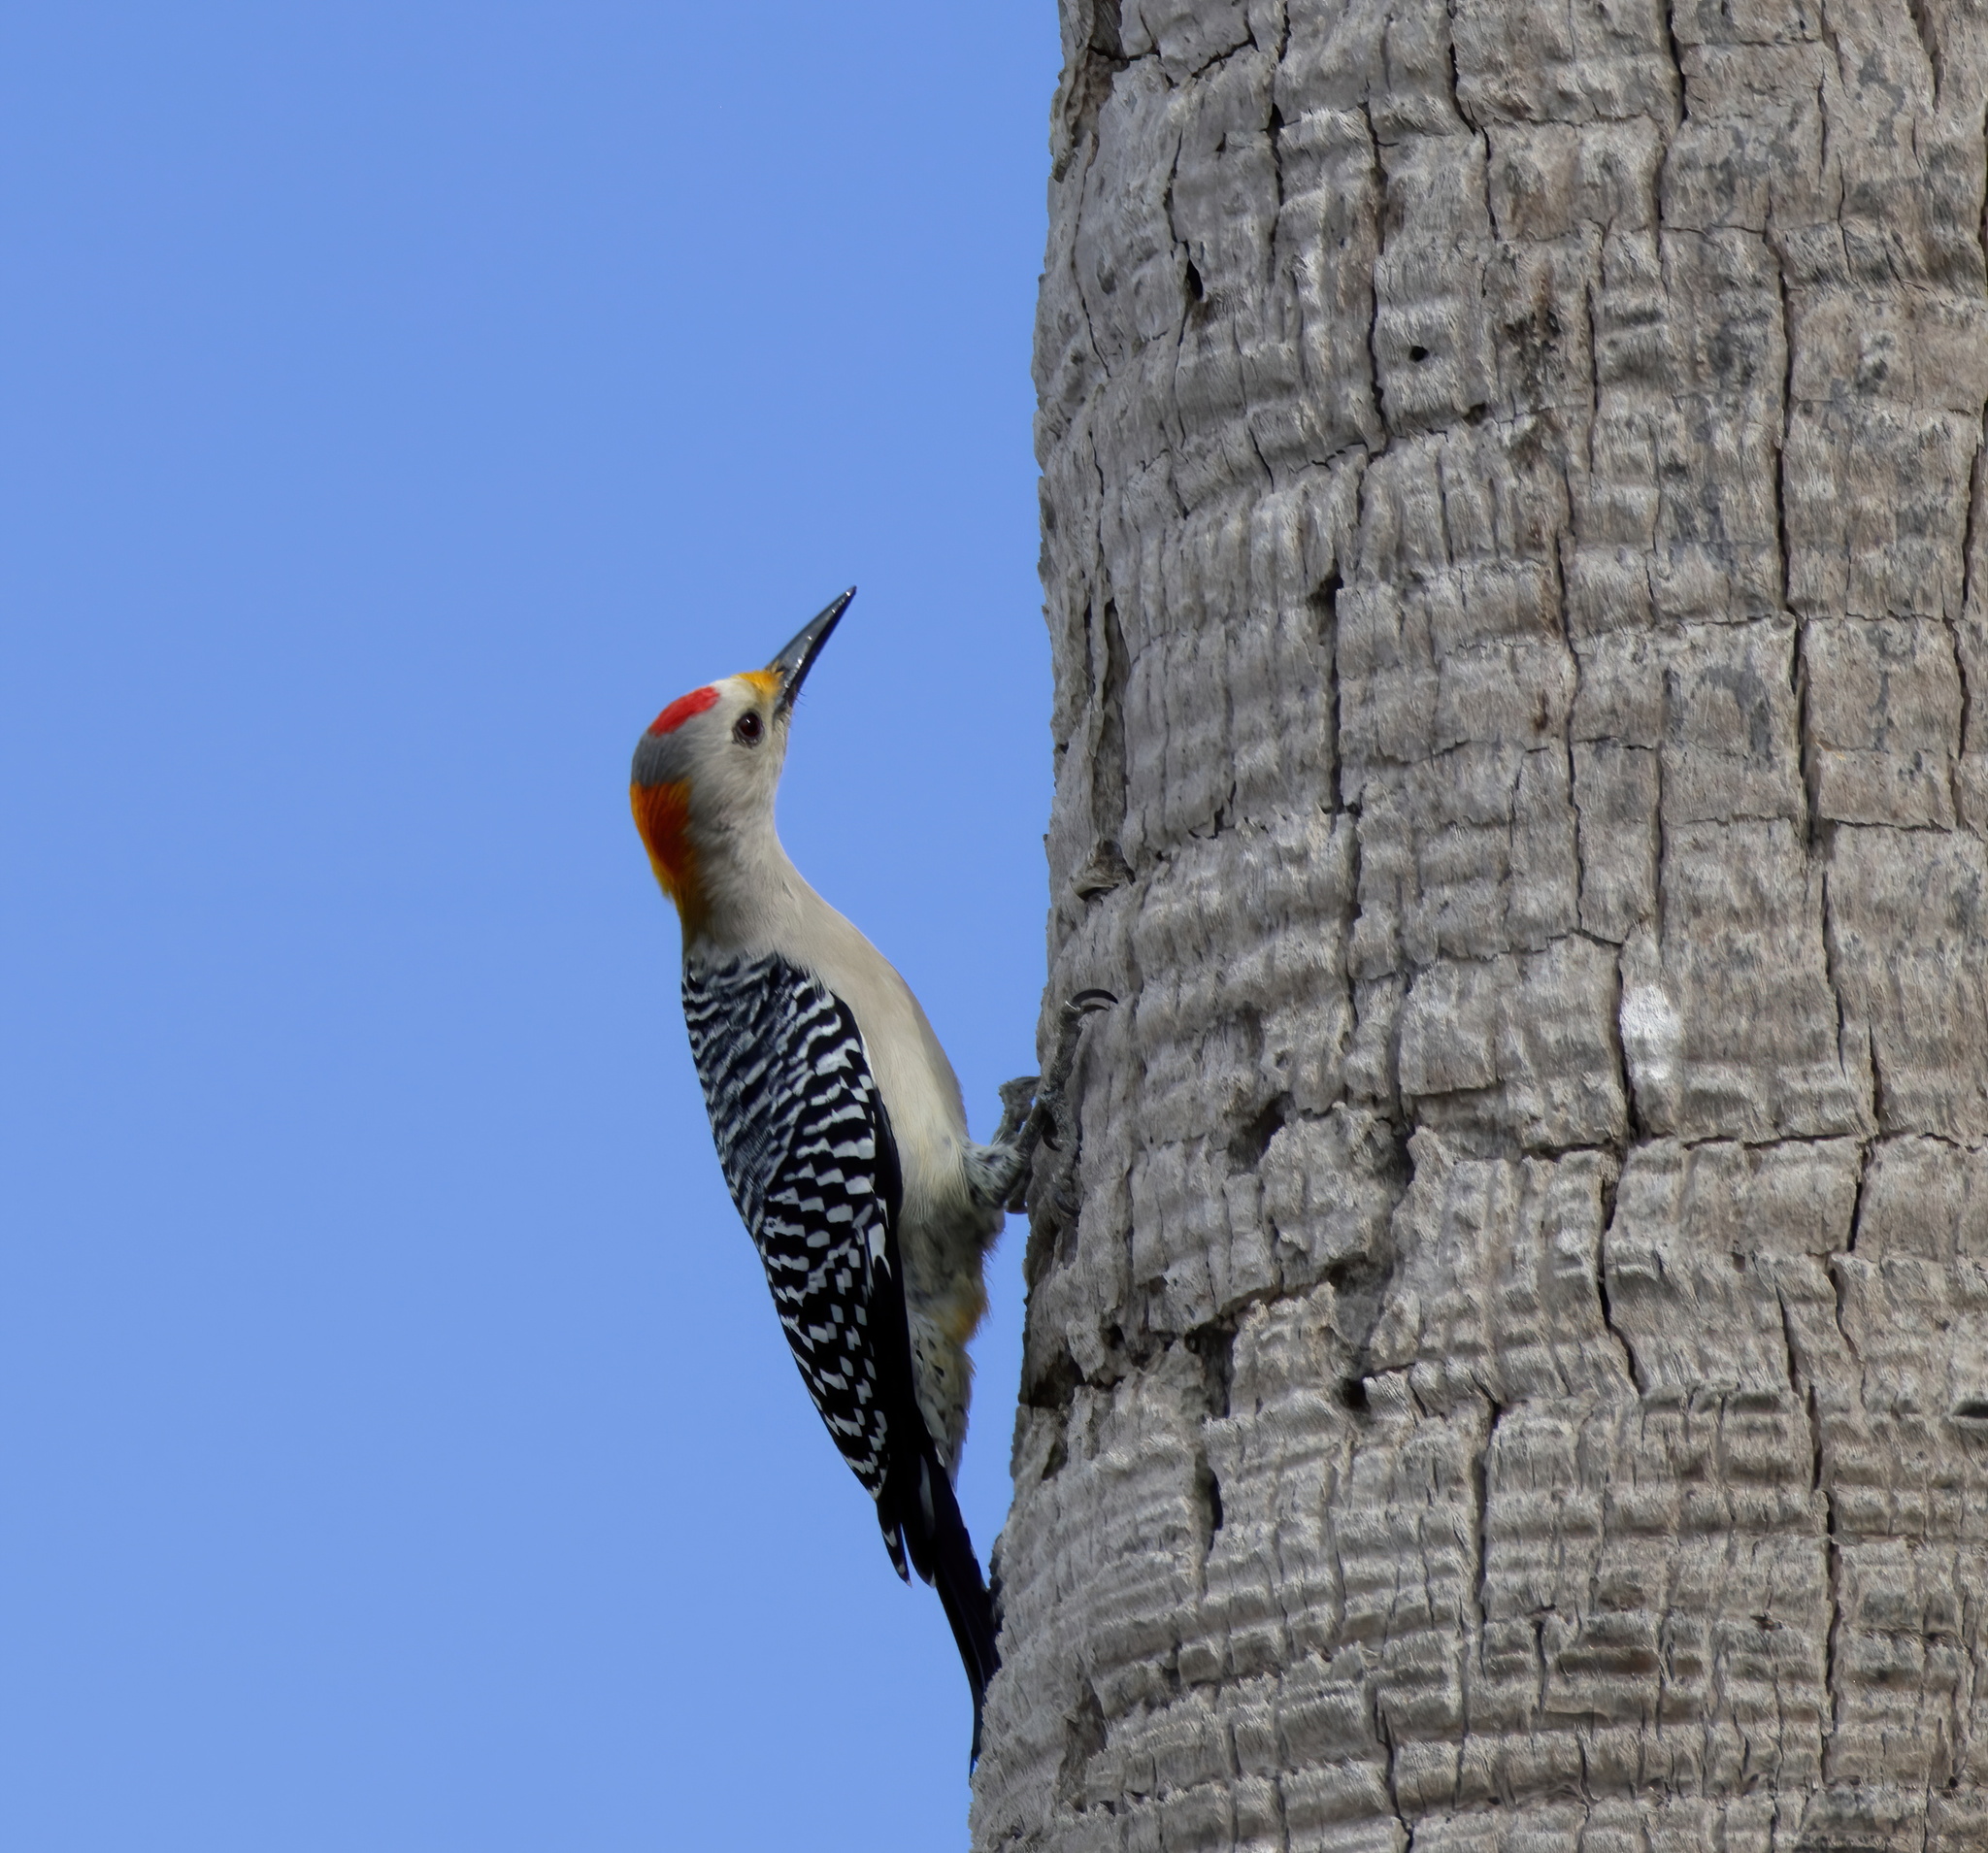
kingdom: Animalia
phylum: Chordata
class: Aves
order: Piciformes
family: Picidae
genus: Melanerpes
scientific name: Melanerpes aurifrons
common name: Golden-fronted woodpecker
